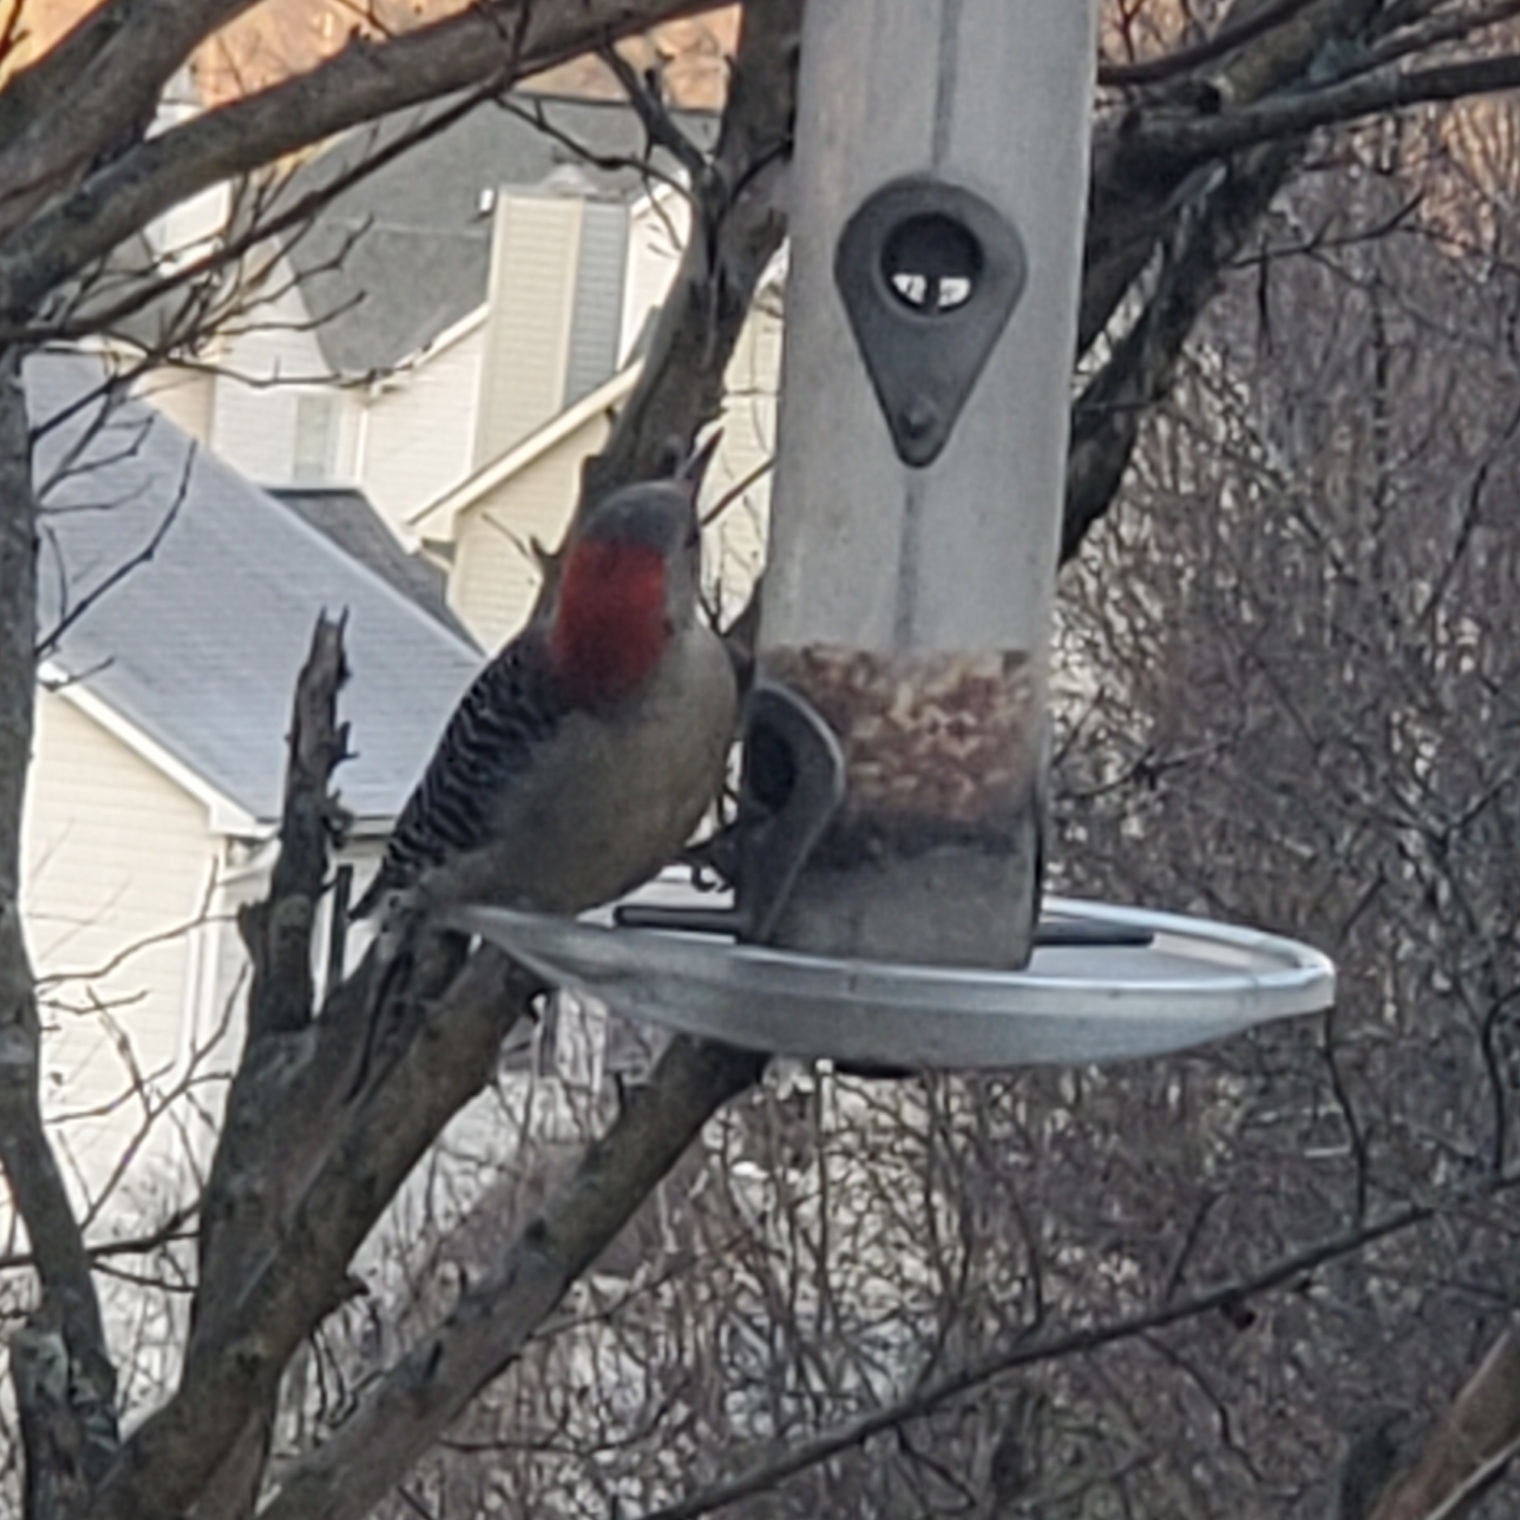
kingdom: Animalia
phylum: Chordata
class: Aves
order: Piciformes
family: Picidae
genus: Melanerpes
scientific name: Melanerpes carolinus
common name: Red-bellied woodpecker
